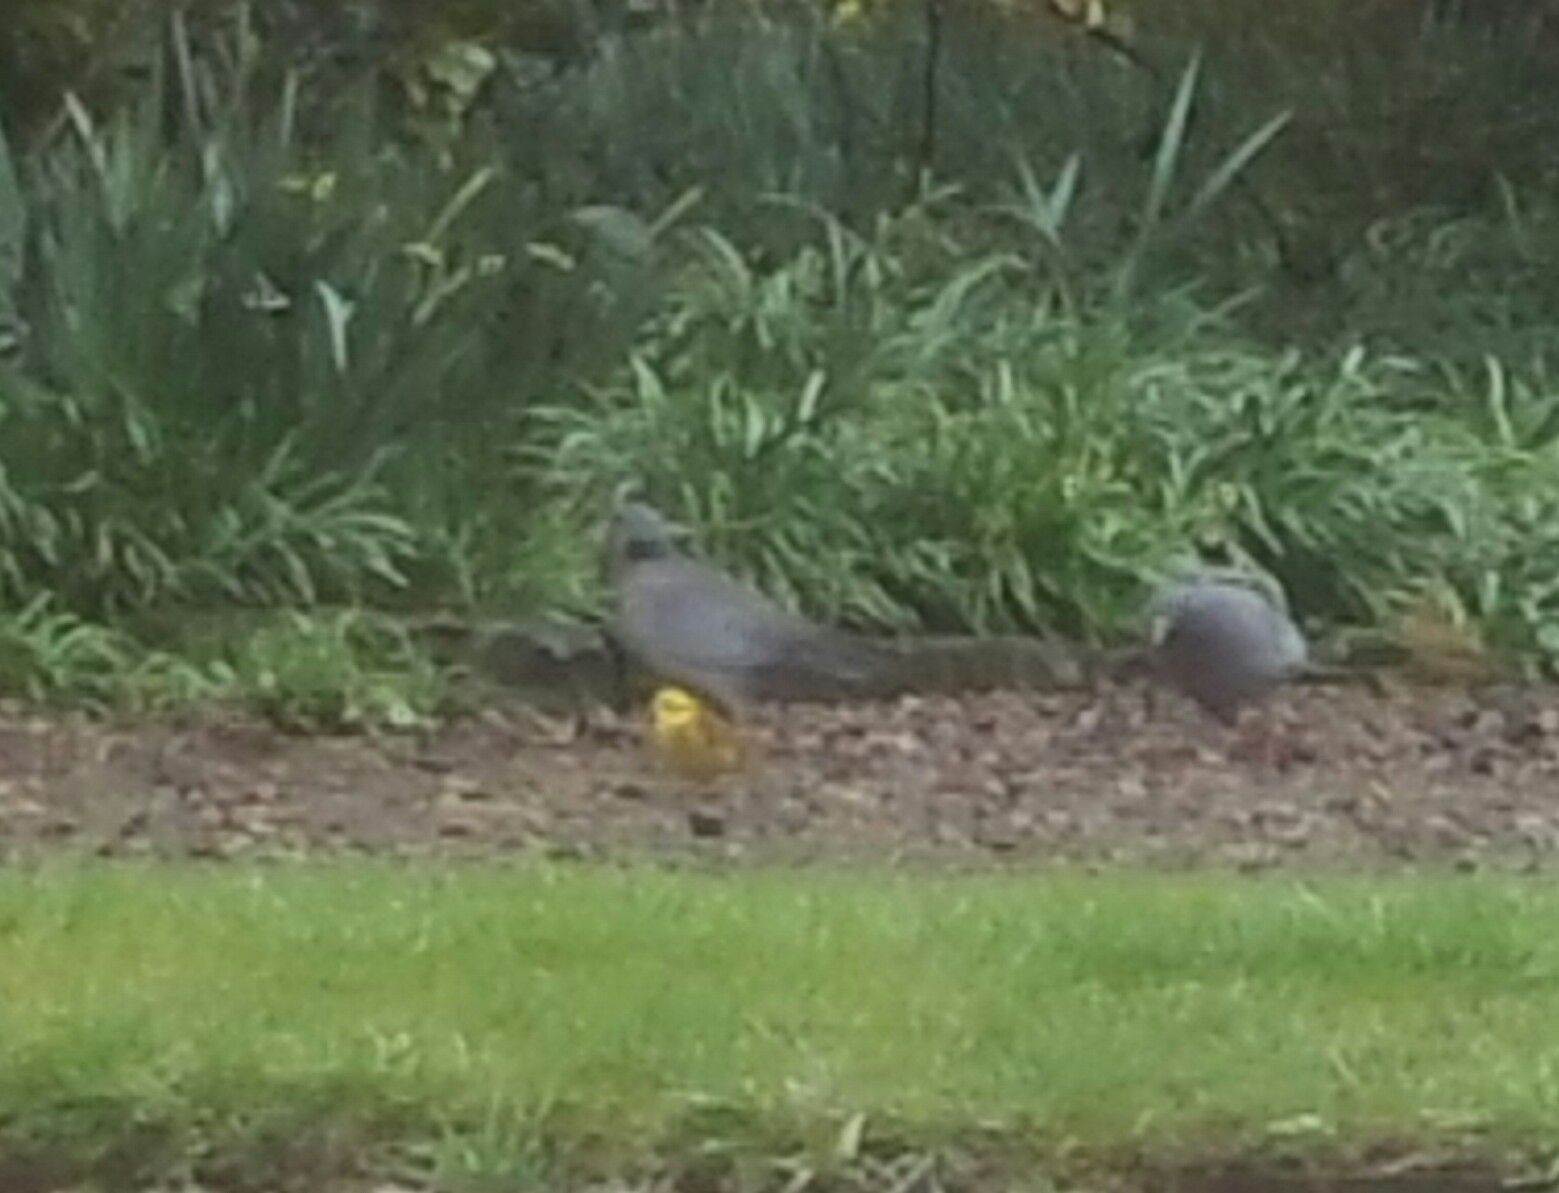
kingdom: Animalia
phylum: Chordata
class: Aves
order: Passeriformes
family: Emberizidae
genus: Emberiza
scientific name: Emberiza citrinella
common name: Yellowhammer
